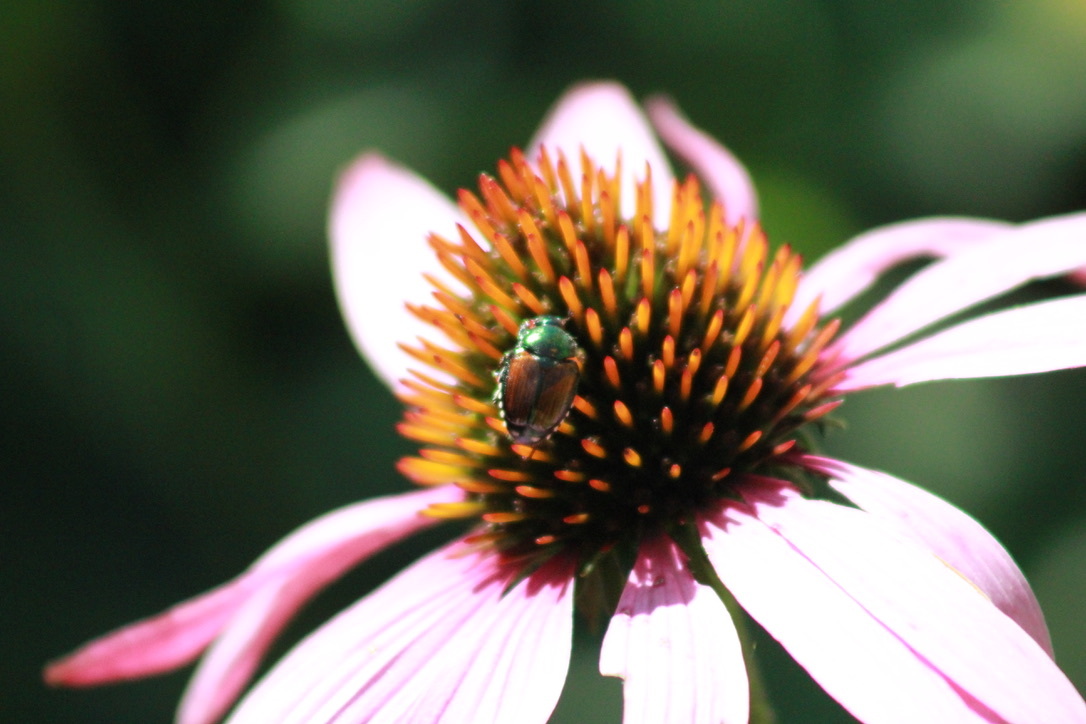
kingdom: Animalia
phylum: Arthropoda
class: Insecta
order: Coleoptera
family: Scarabaeidae
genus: Popillia
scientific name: Popillia japonica
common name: Japanese beetle
